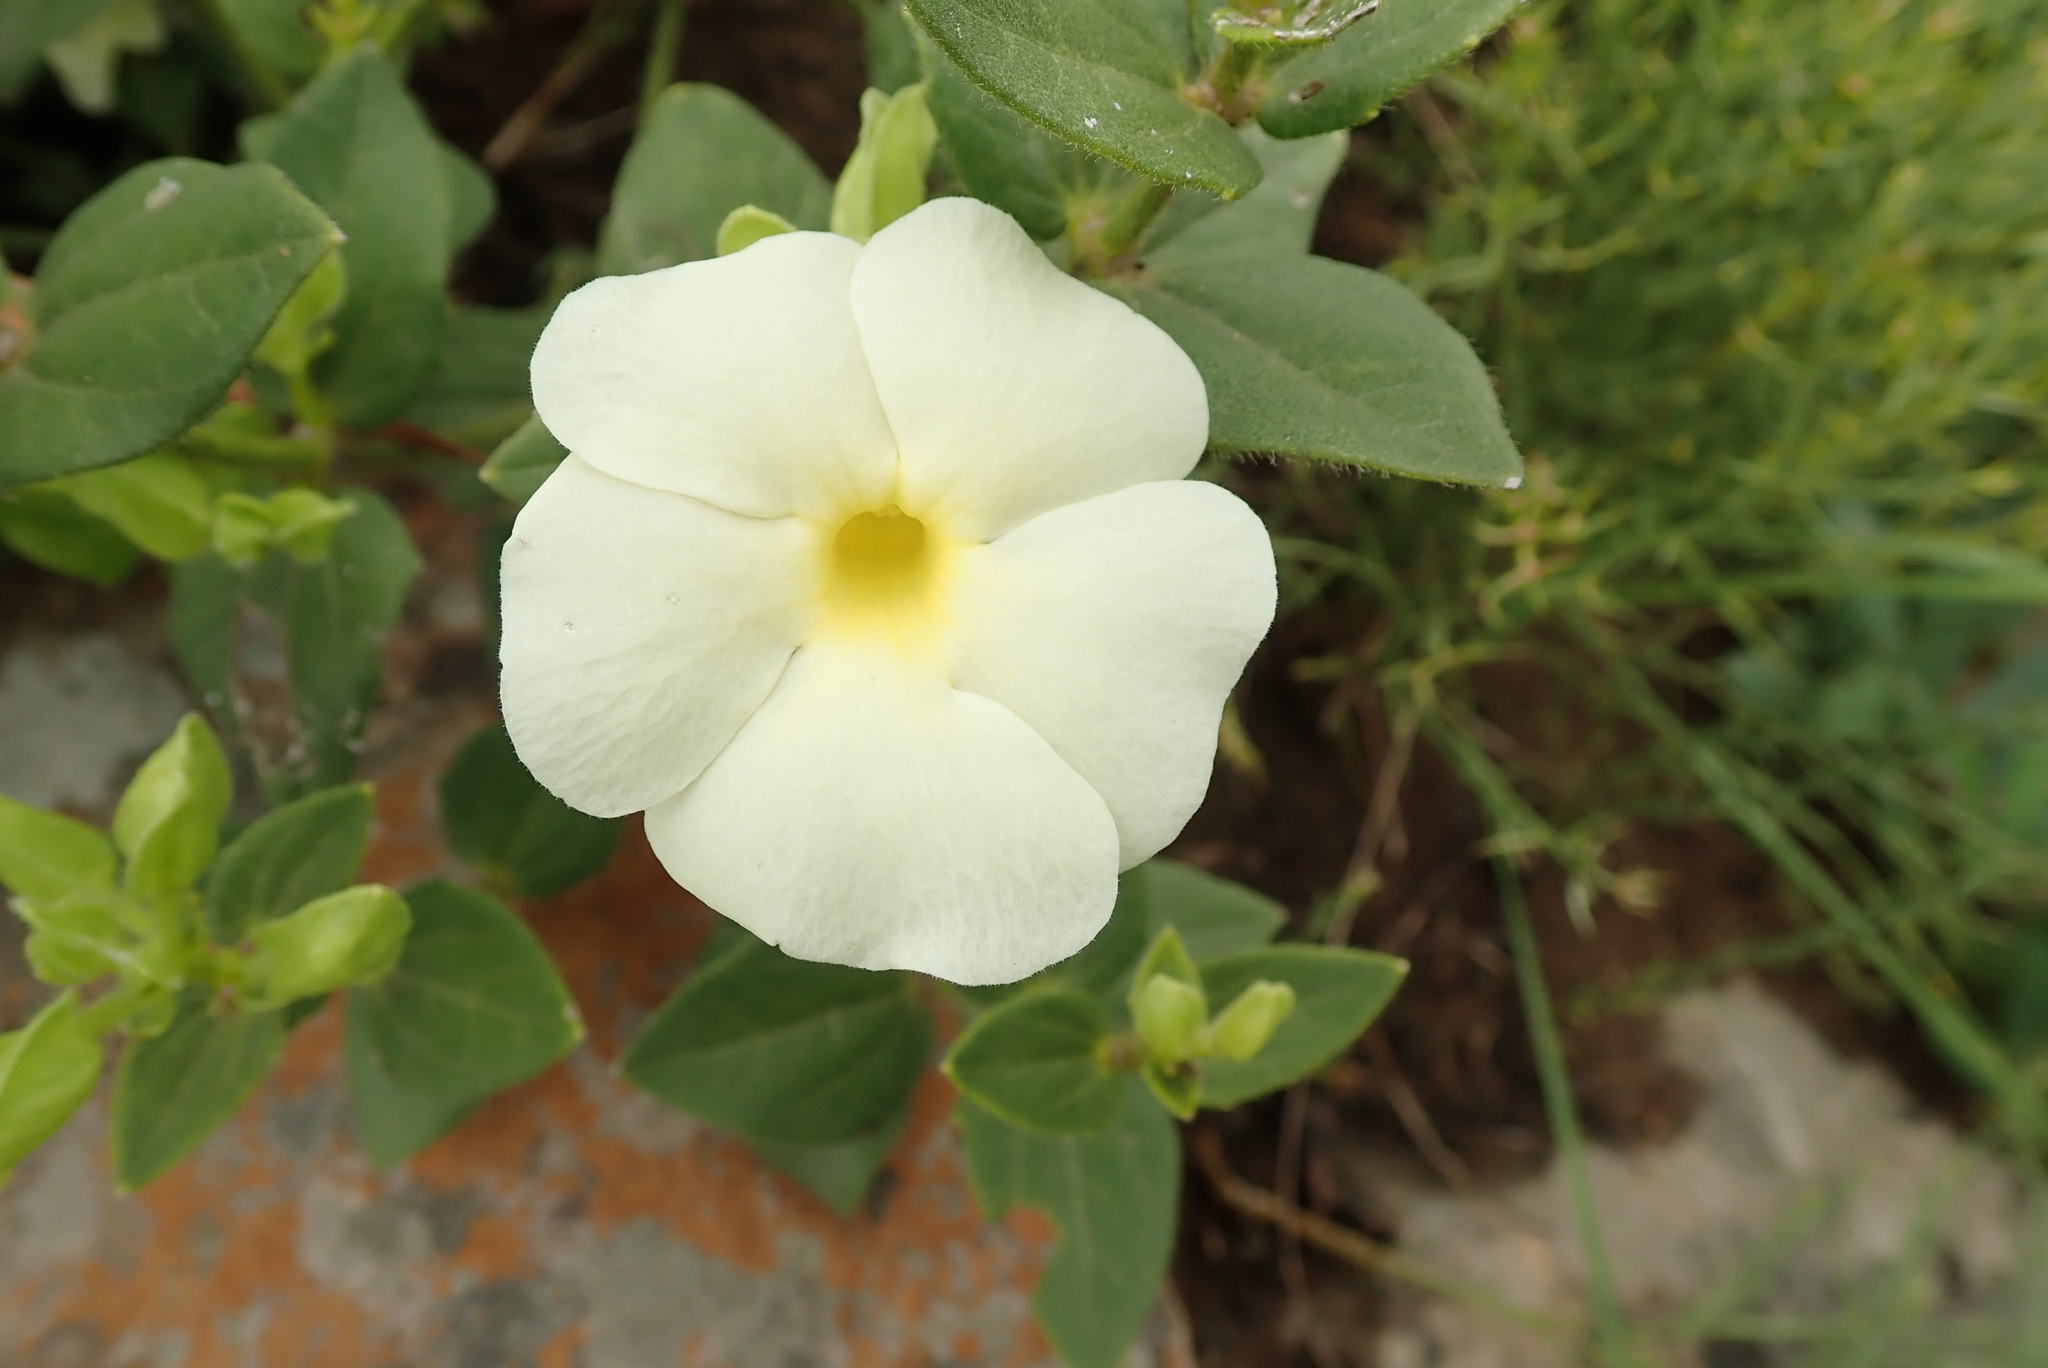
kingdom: Plantae
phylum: Tracheophyta
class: Magnoliopsida
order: Lamiales
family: Acanthaceae
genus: Thunbergia
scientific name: Thunbergia atriplicifolia
